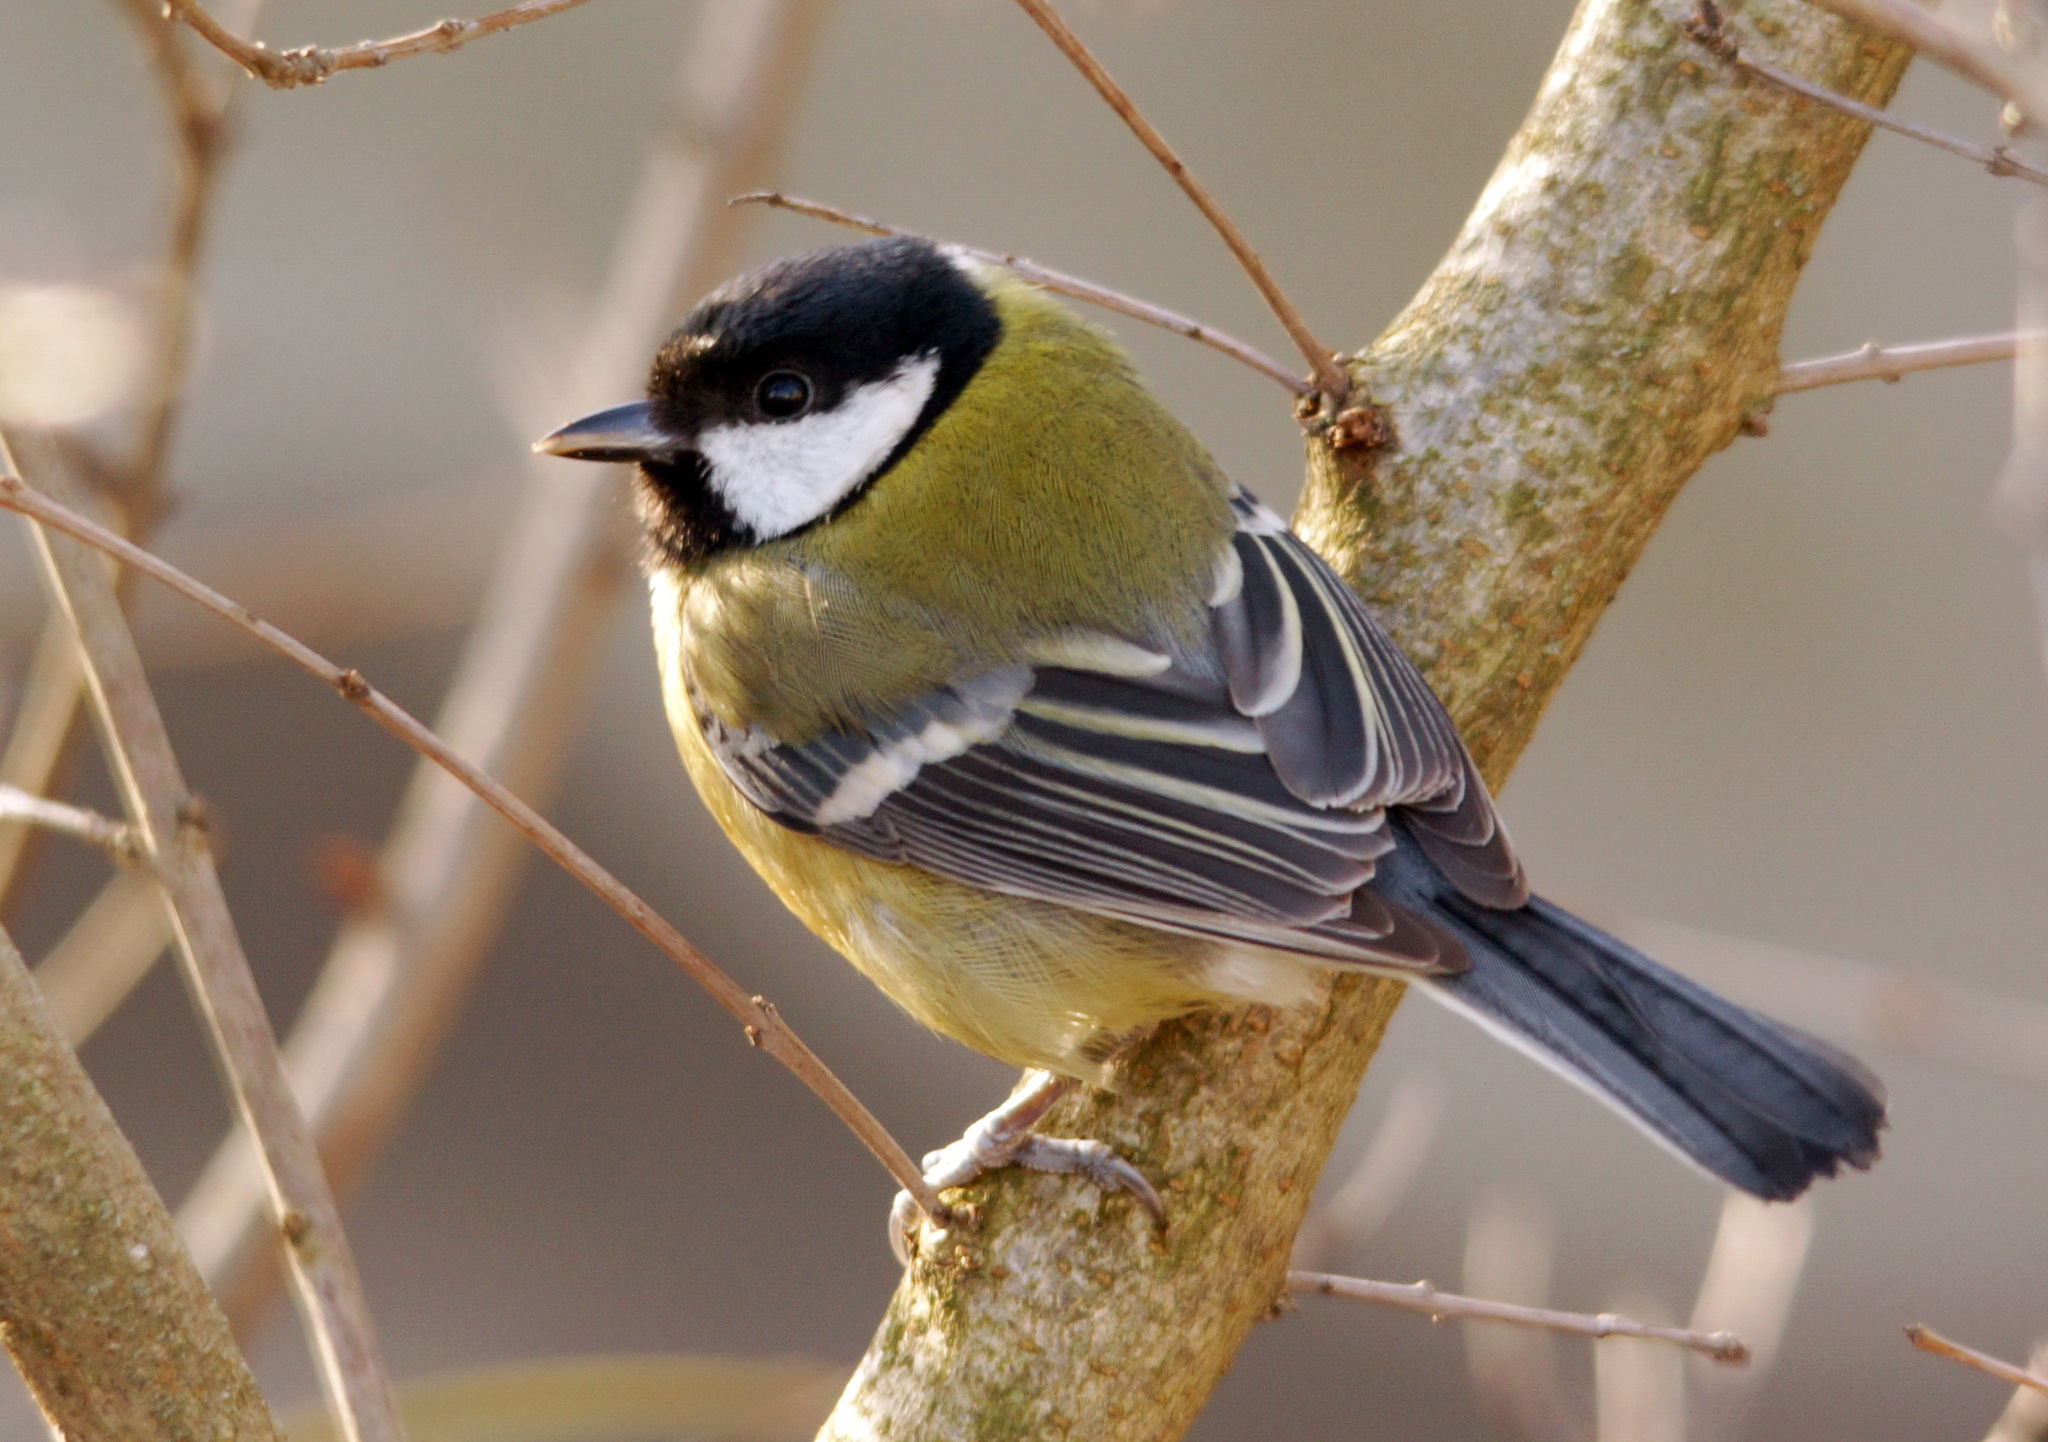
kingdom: Animalia
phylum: Chordata
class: Aves
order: Passeriformes
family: Paridae
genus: Parus
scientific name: Parus major
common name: Great tit
